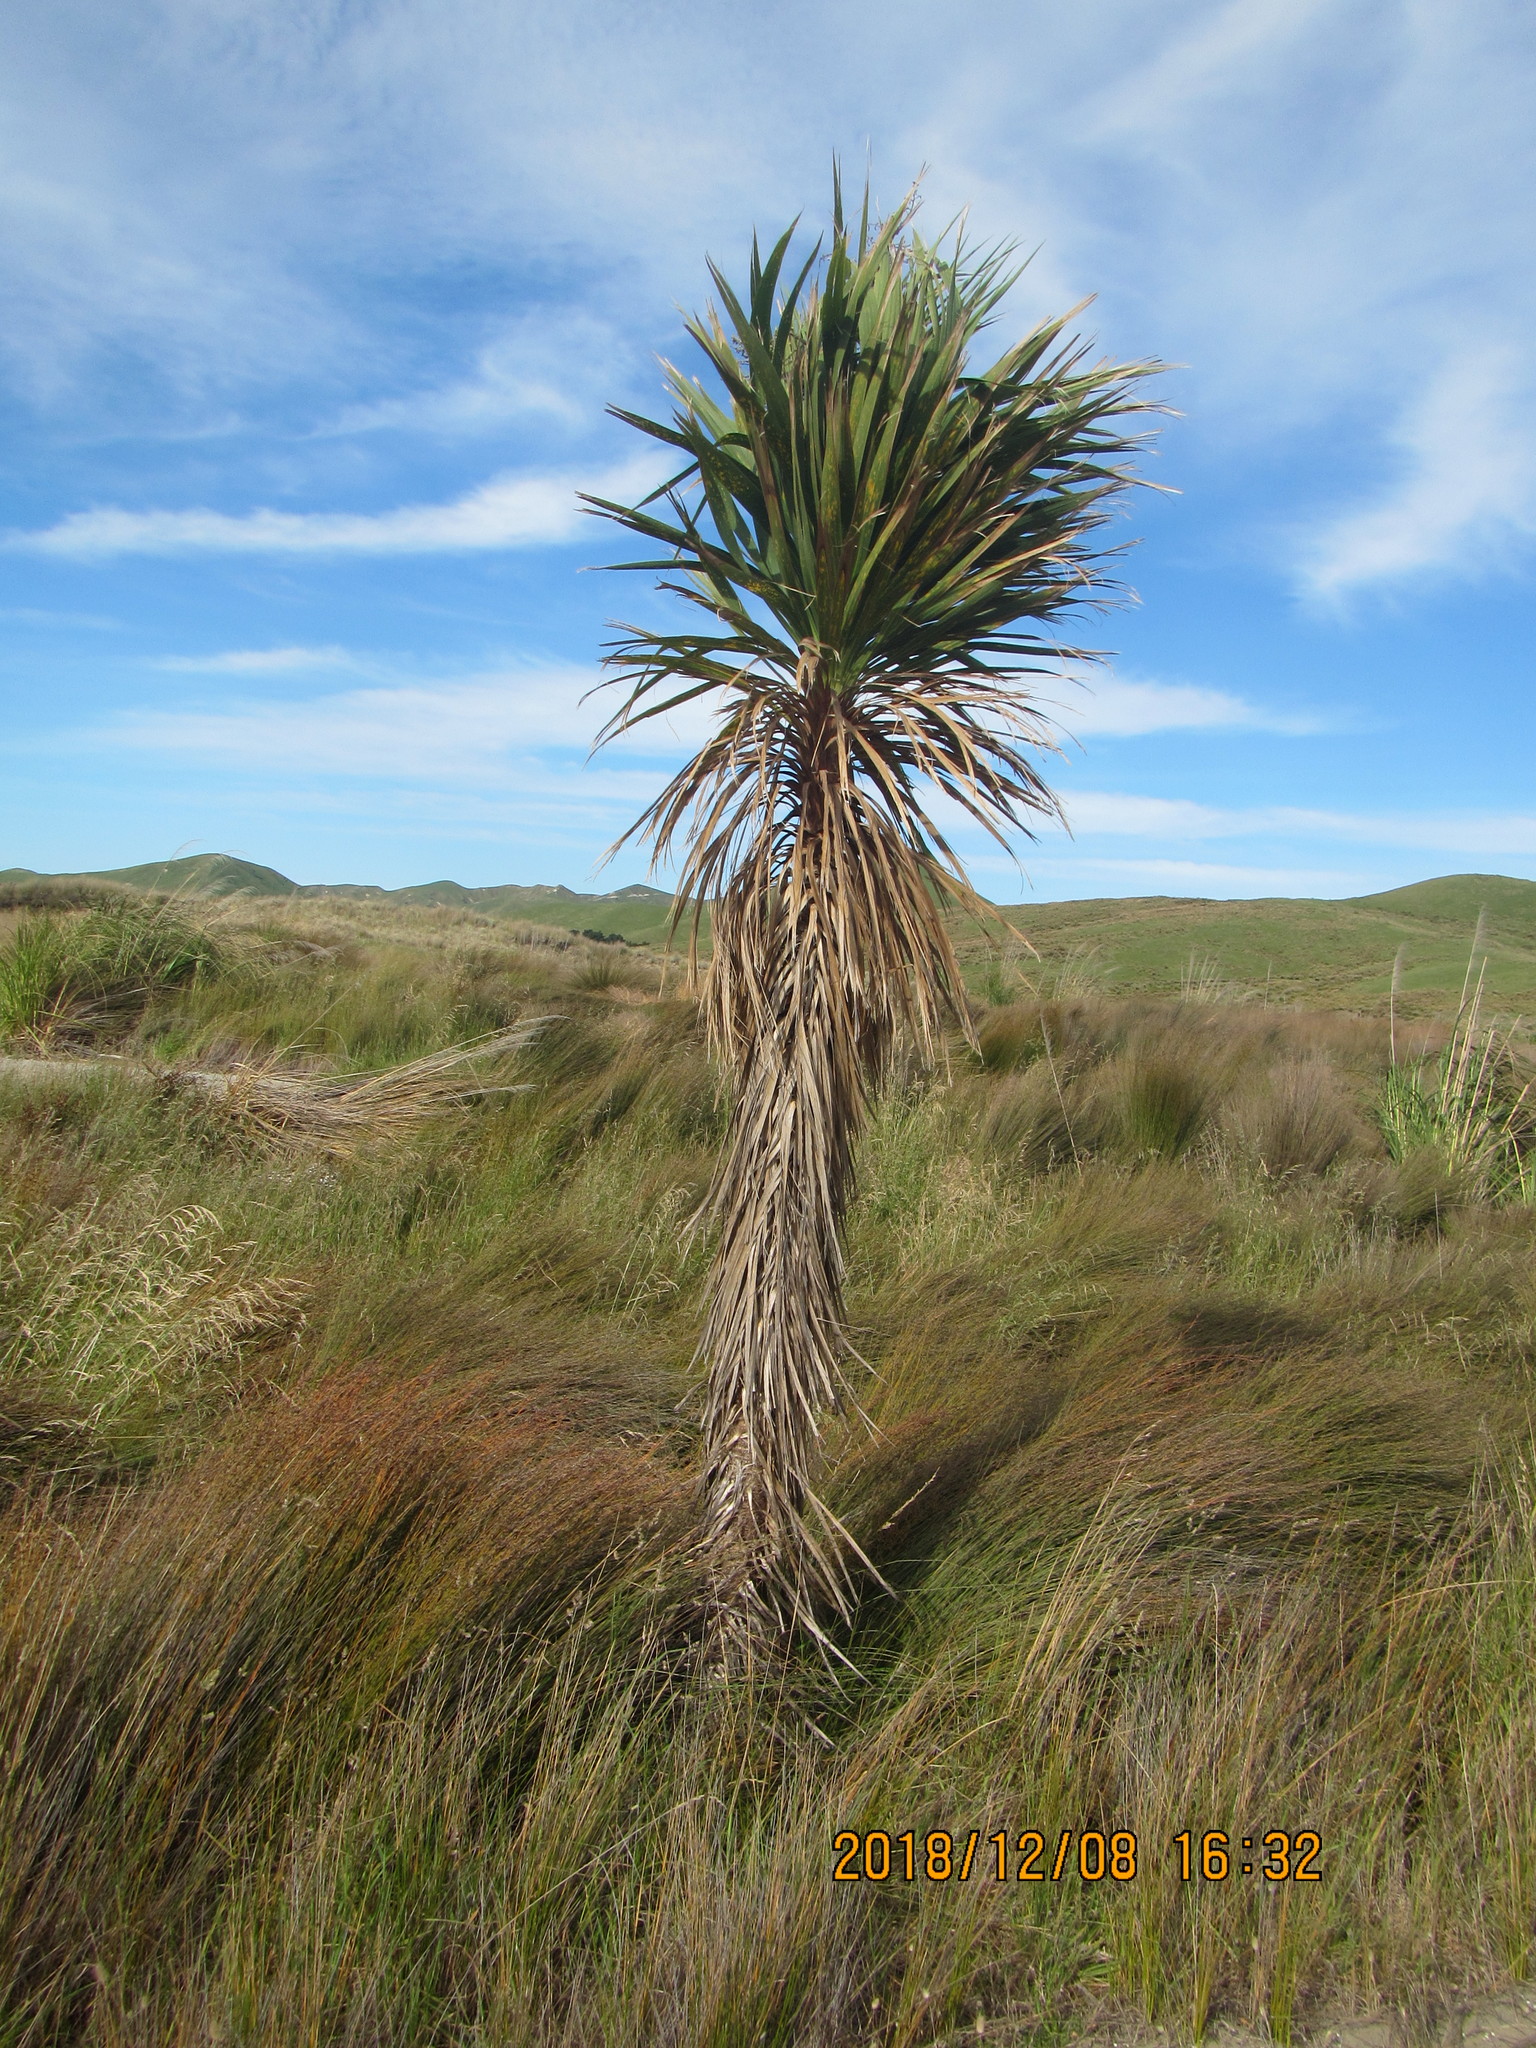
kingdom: Plantae
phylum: Tracheophyta
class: Liliopsida
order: Asparagales
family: Asparagaceae
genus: Cordyline
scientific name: Cordyline australis
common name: Cabbage-palm
